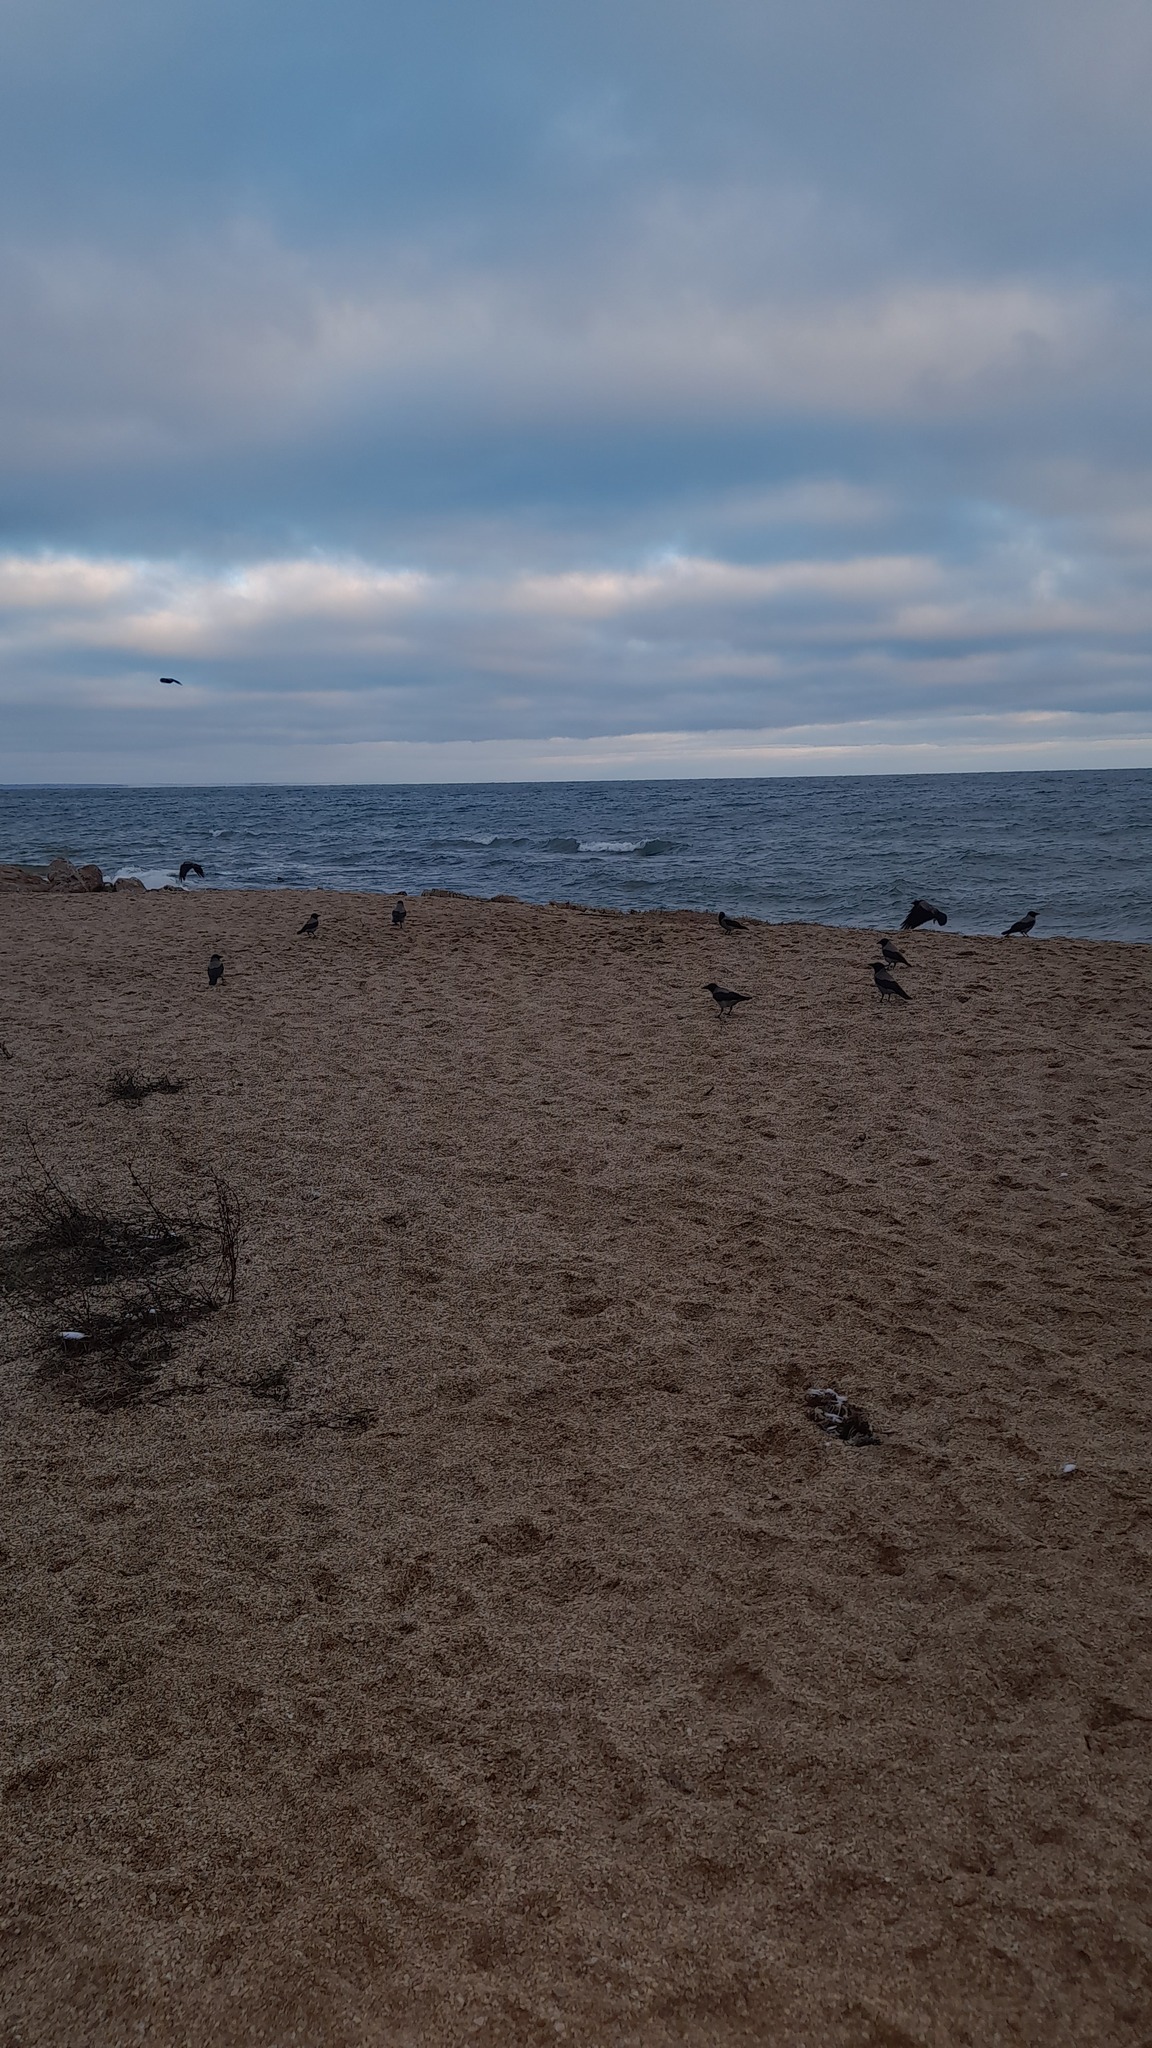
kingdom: Animalia
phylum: Chordata
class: Aves
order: Passeriformes
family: Corvidae
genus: Corvus
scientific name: Corvus cornix
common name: Hooded crow
